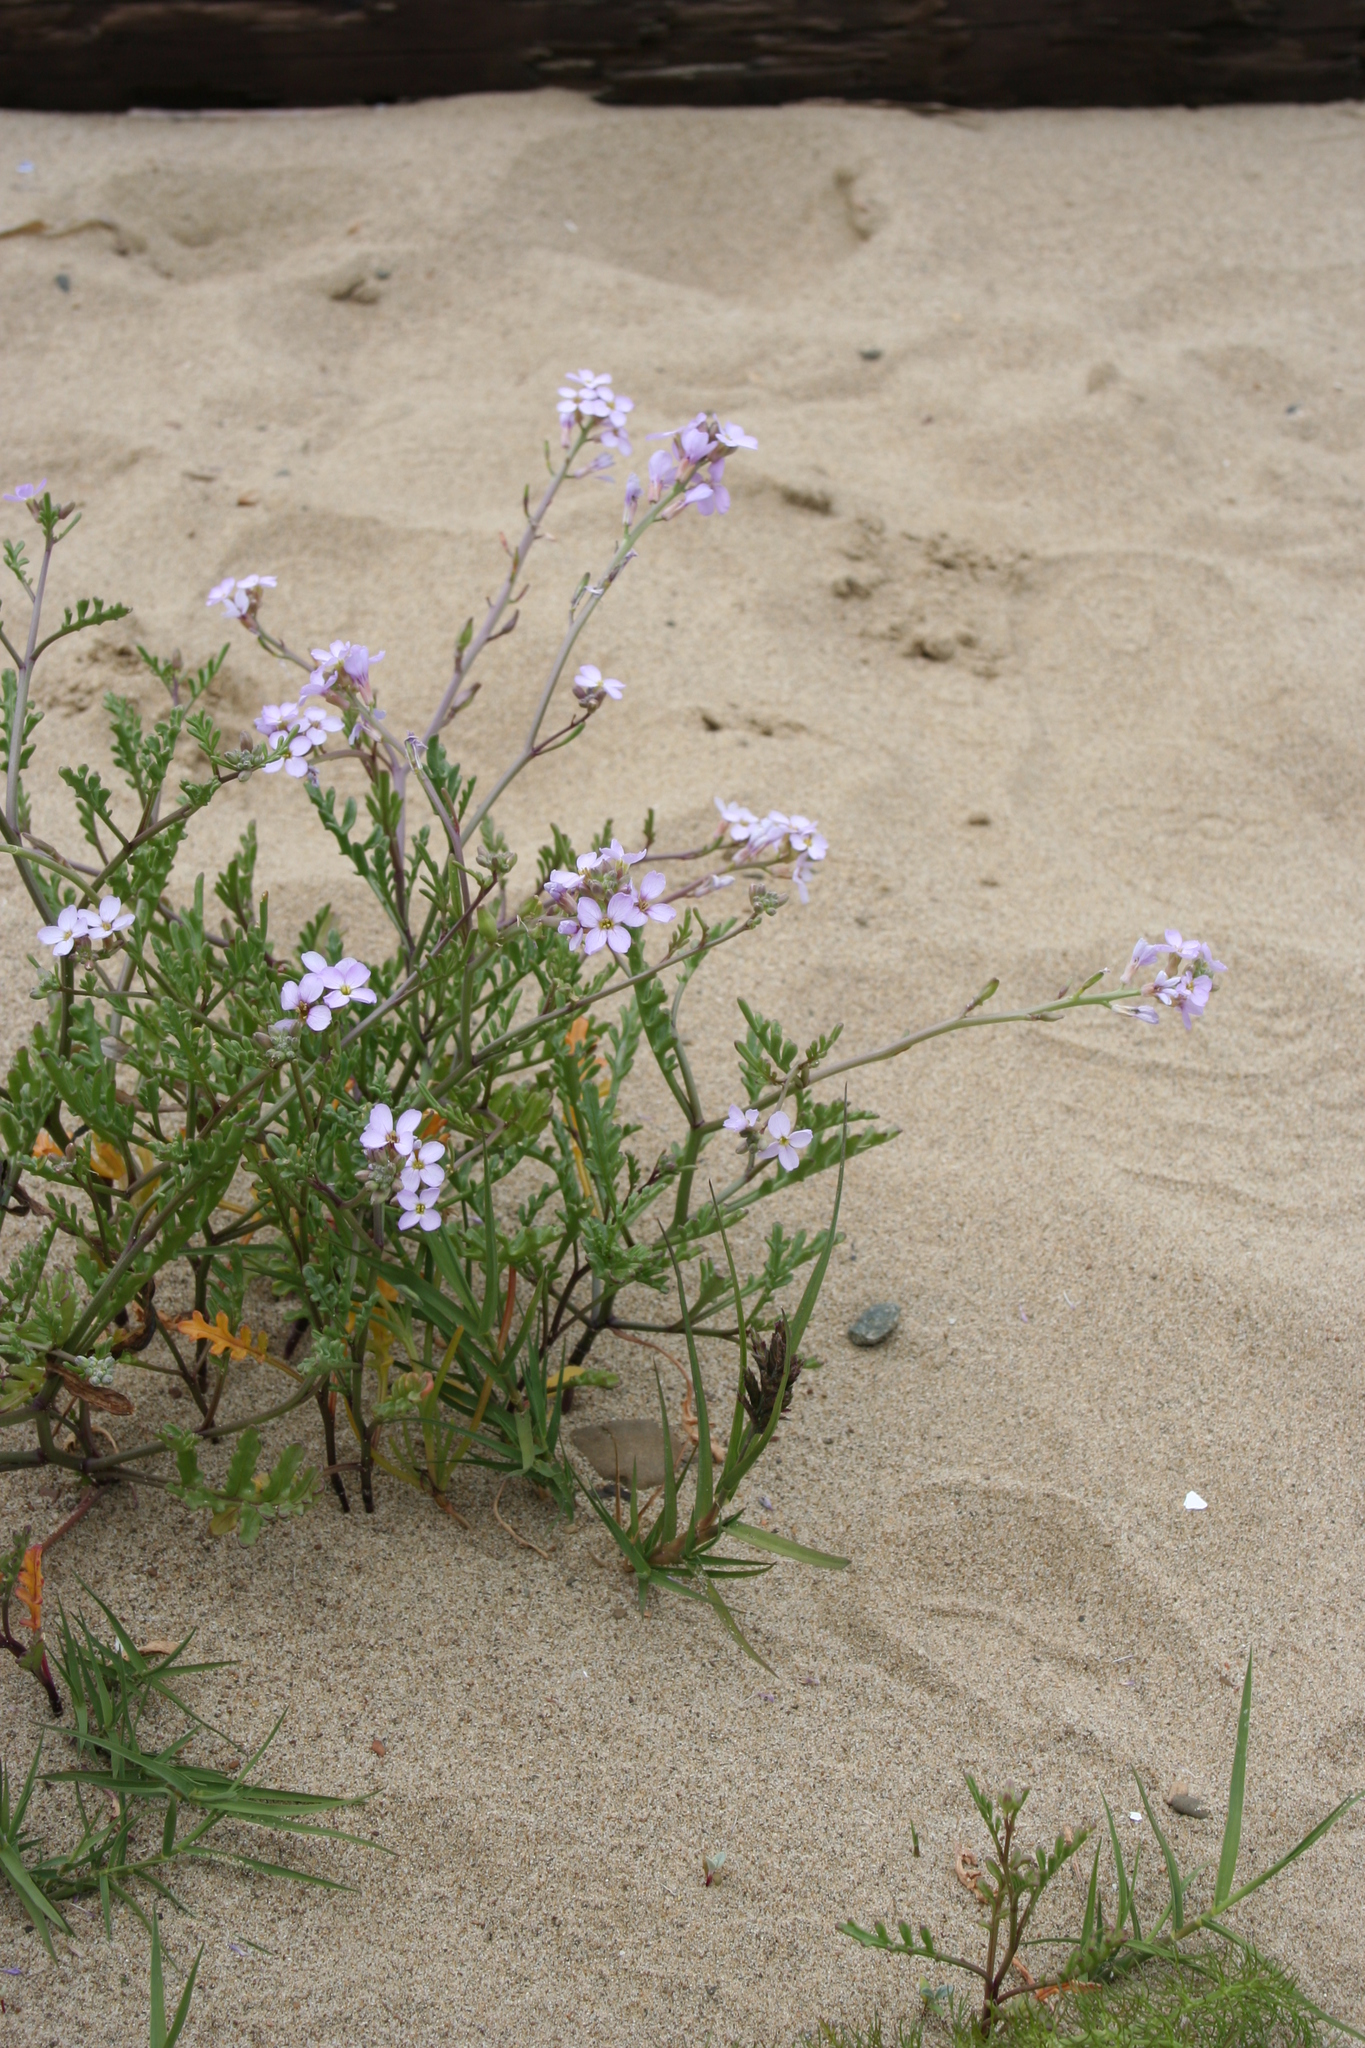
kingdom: Plantae
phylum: Tracheophyta
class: Magnoliopsida
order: Brassicales
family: Brassicaceae
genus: Cakile
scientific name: Cakile maritima
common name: Sea rocket
